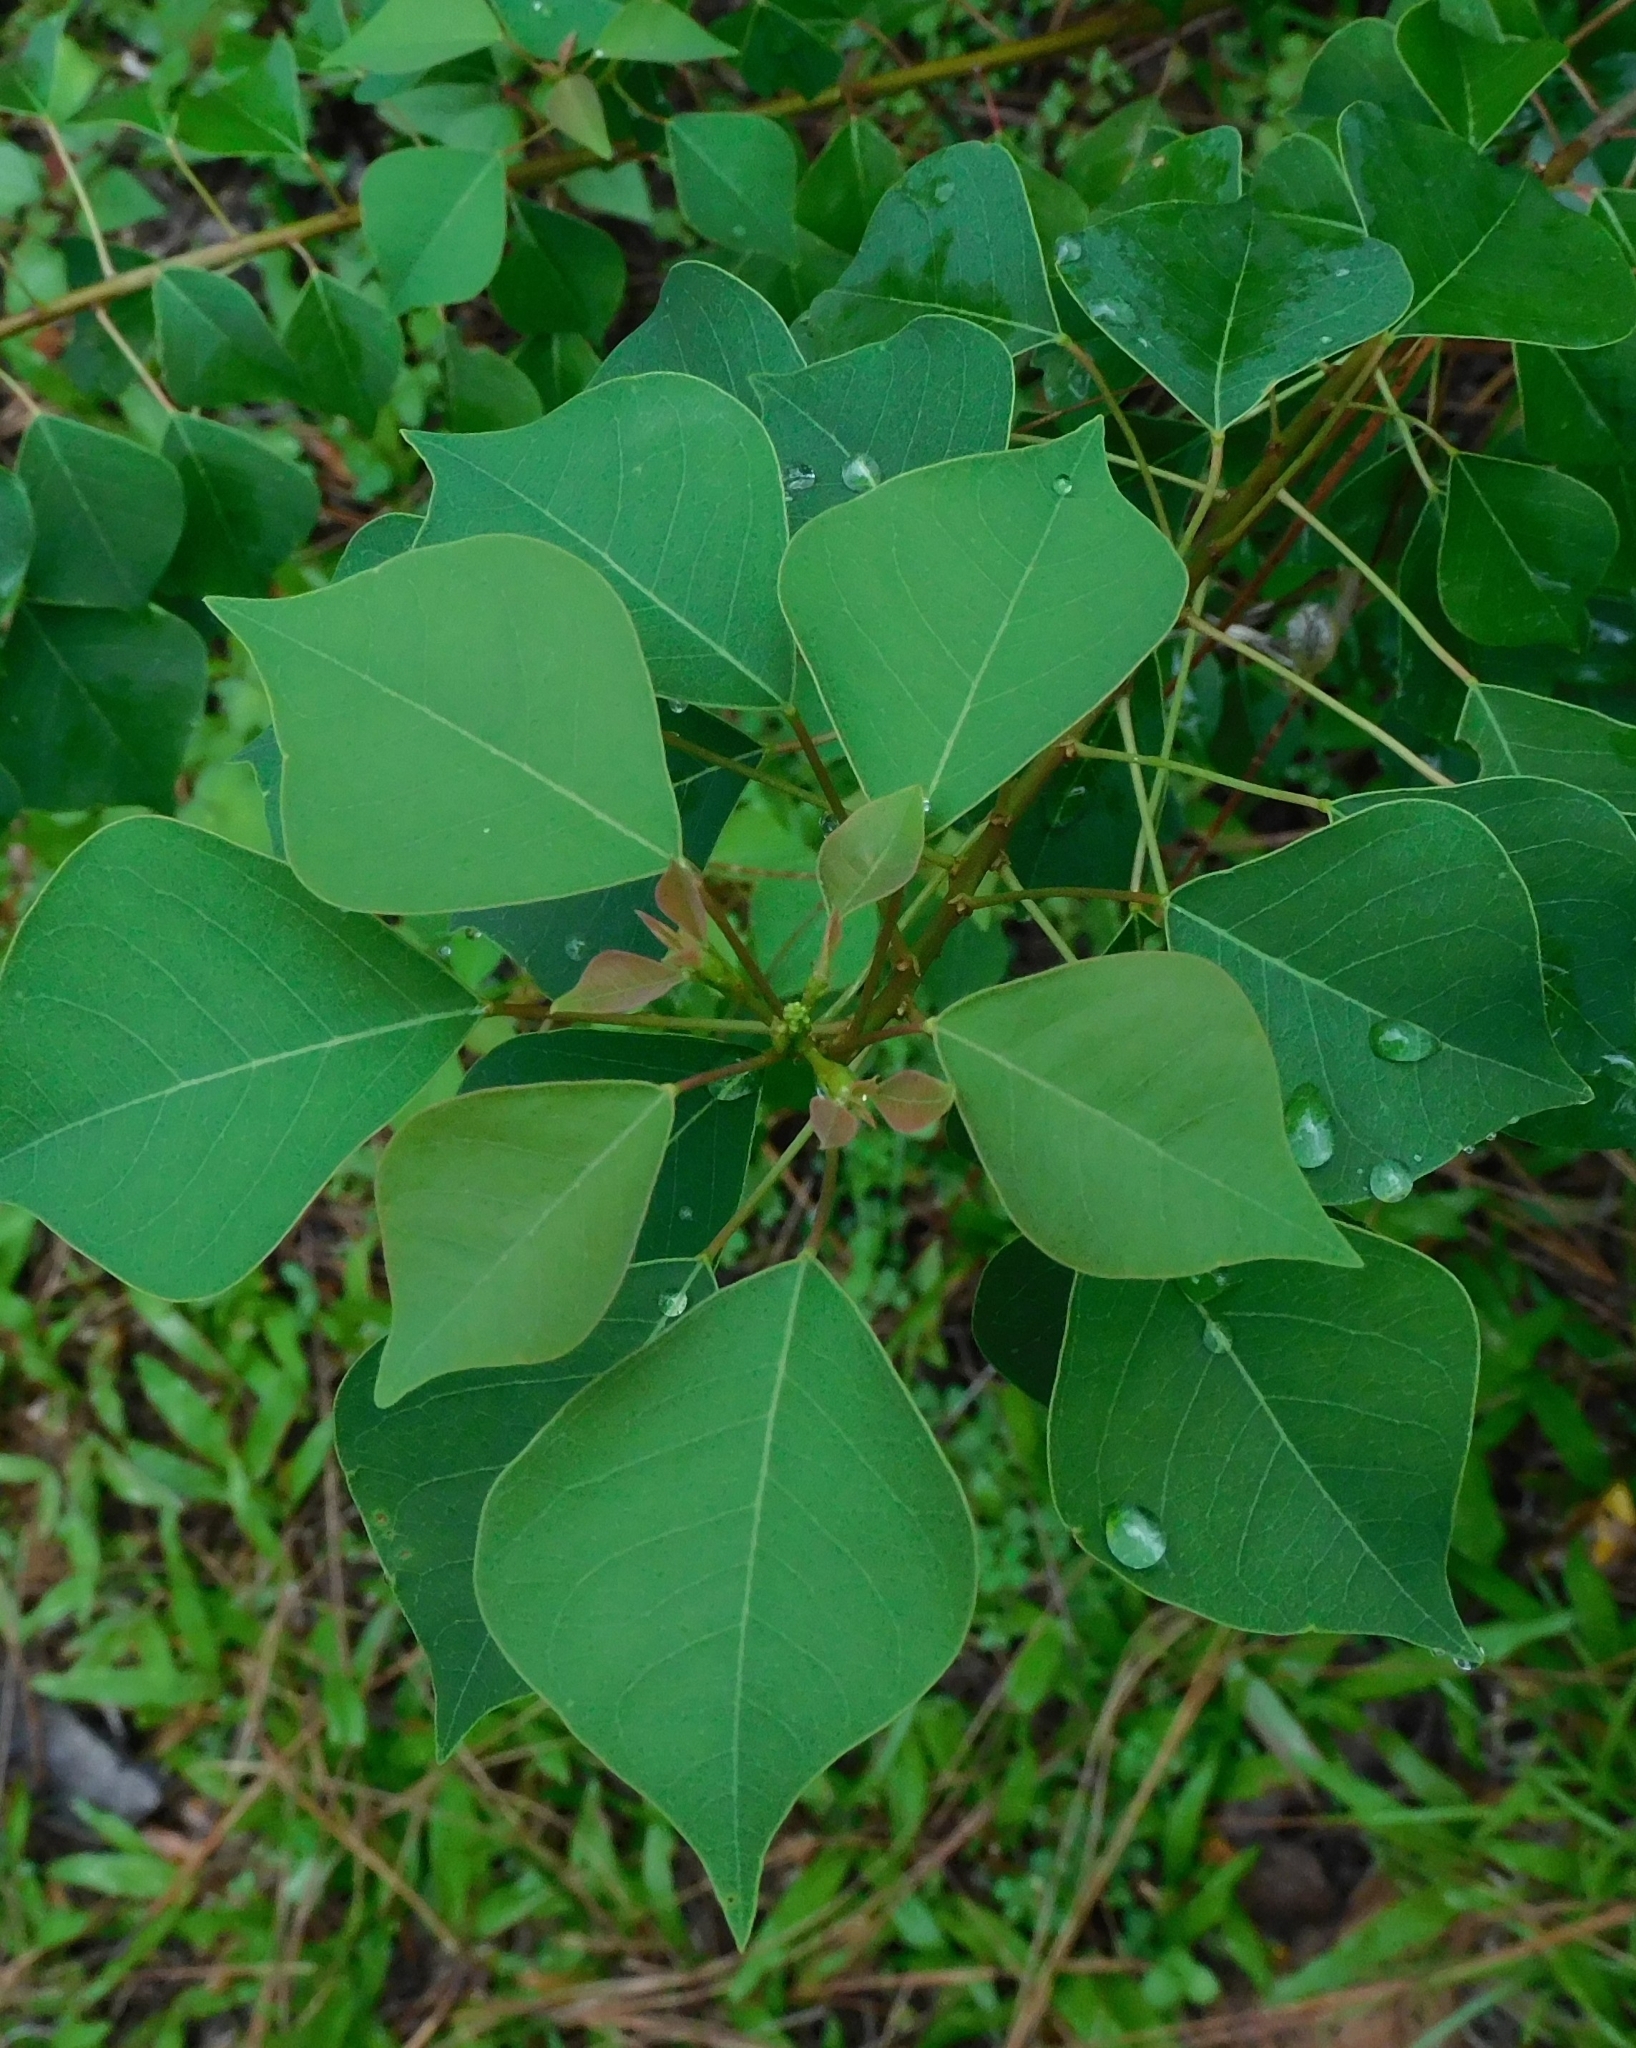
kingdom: Plantae
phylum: Tracheophyta
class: Magnoliopsida
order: Malpighiales
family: Euphorbiaceae
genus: Triadica
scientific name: Triadica sebifera
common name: Chinese tallow
